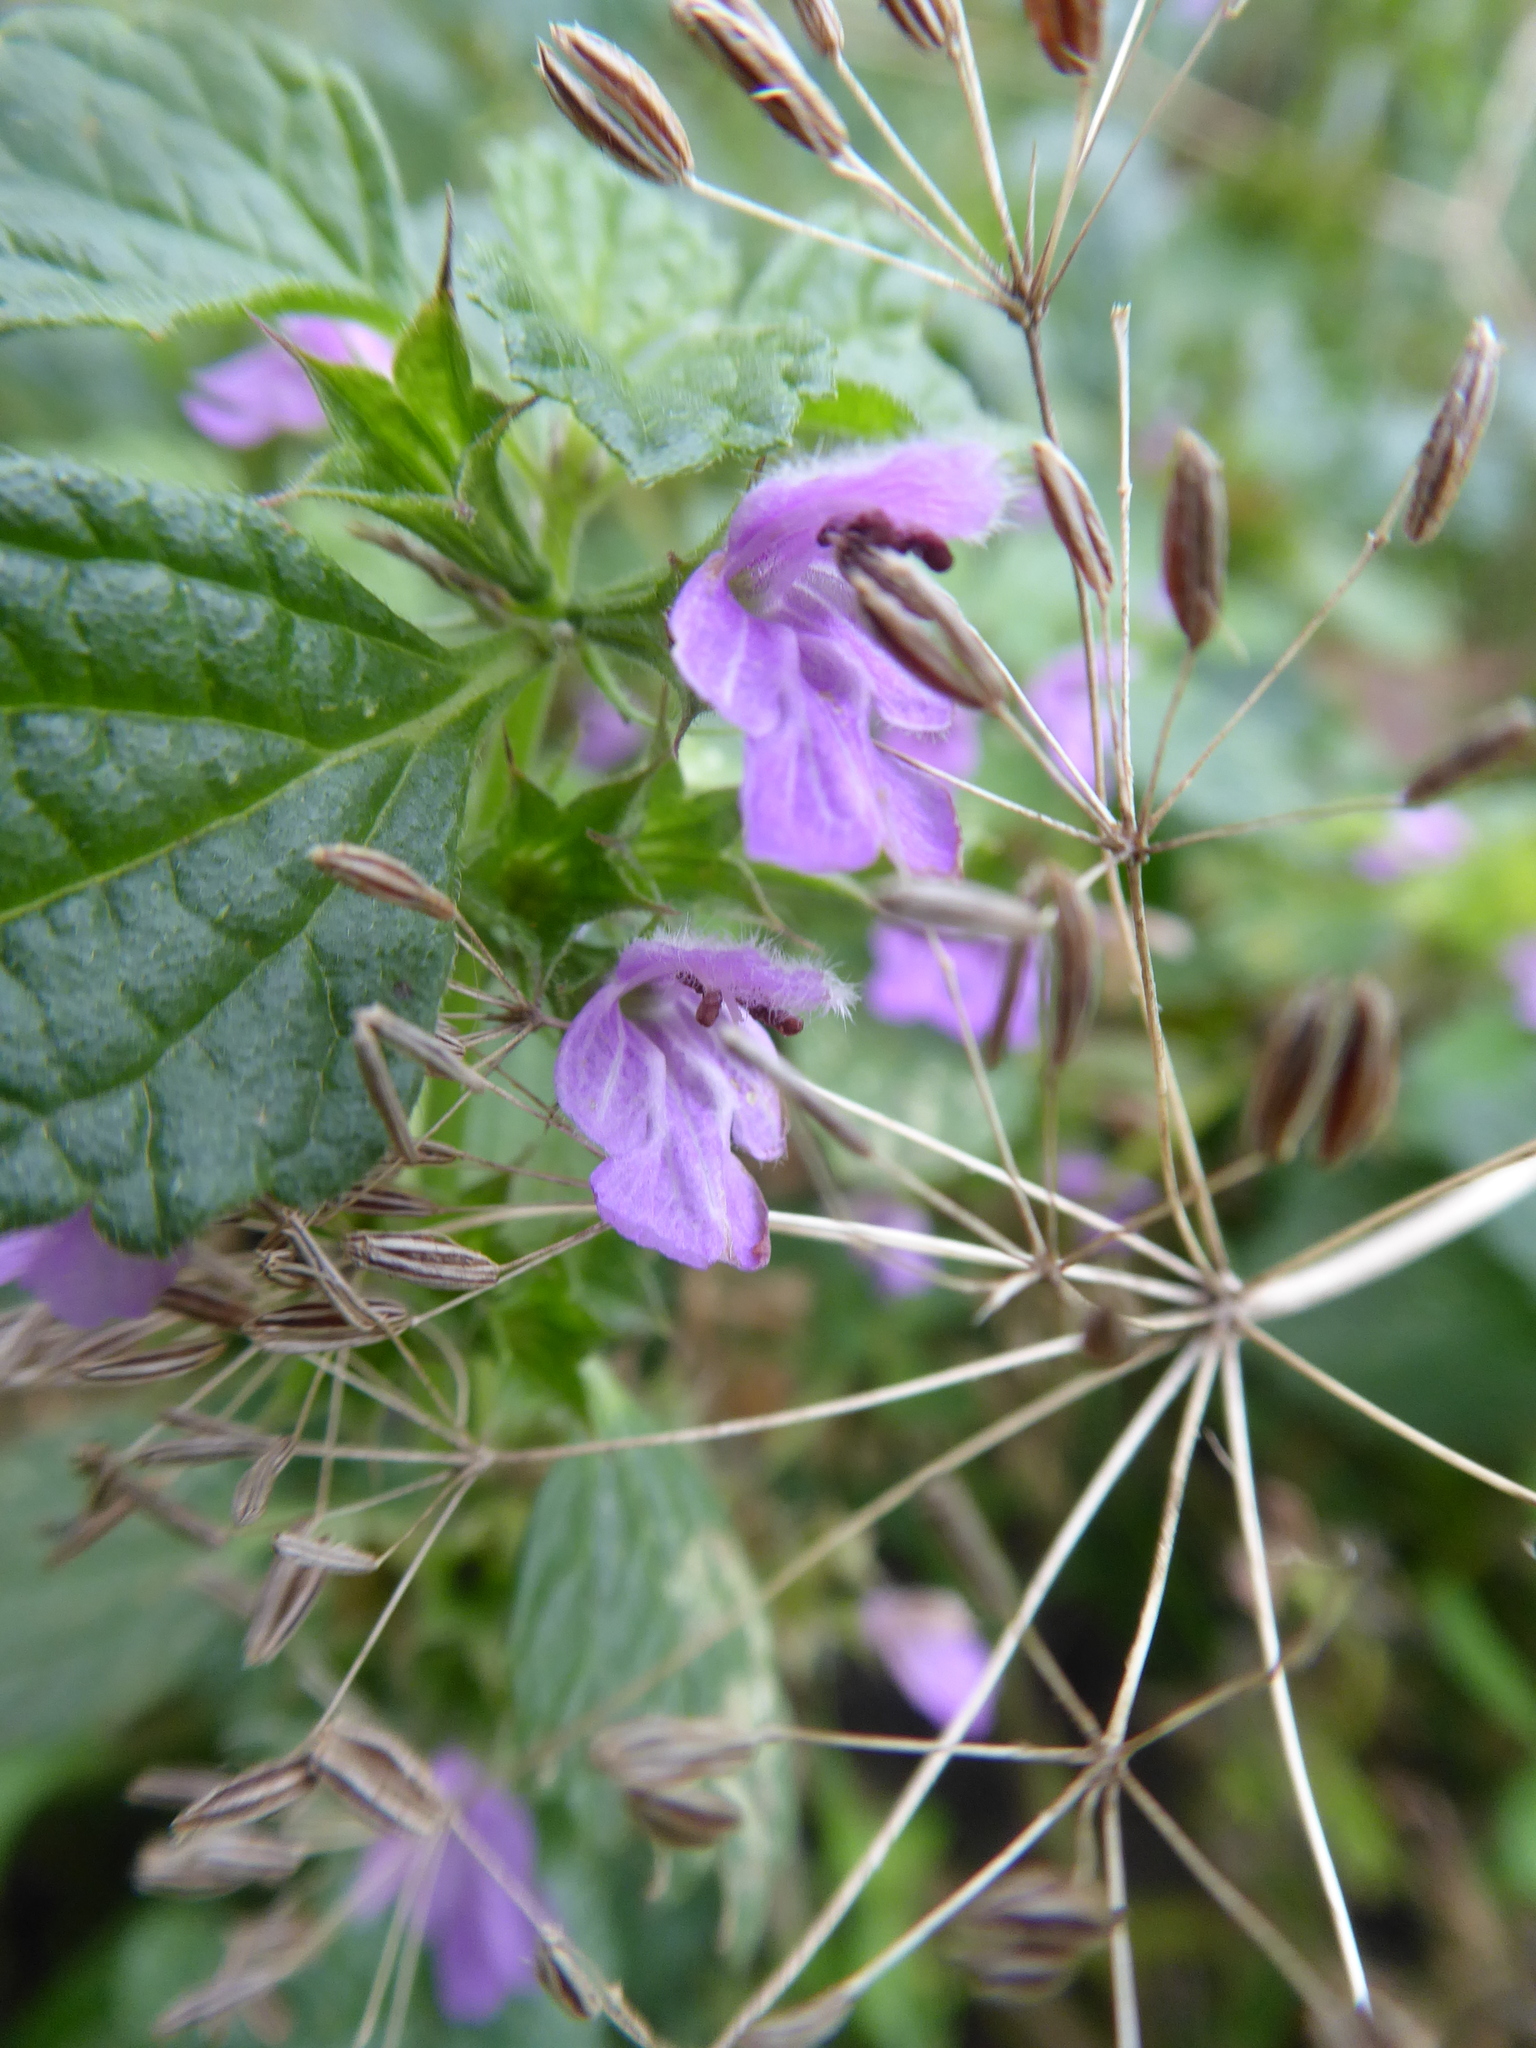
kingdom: Plantae
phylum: Tracheophyta
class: Magnoliopsida
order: Lamiales
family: Lamiaceae
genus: Ballota
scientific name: Ballota nigra
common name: Black horehound
